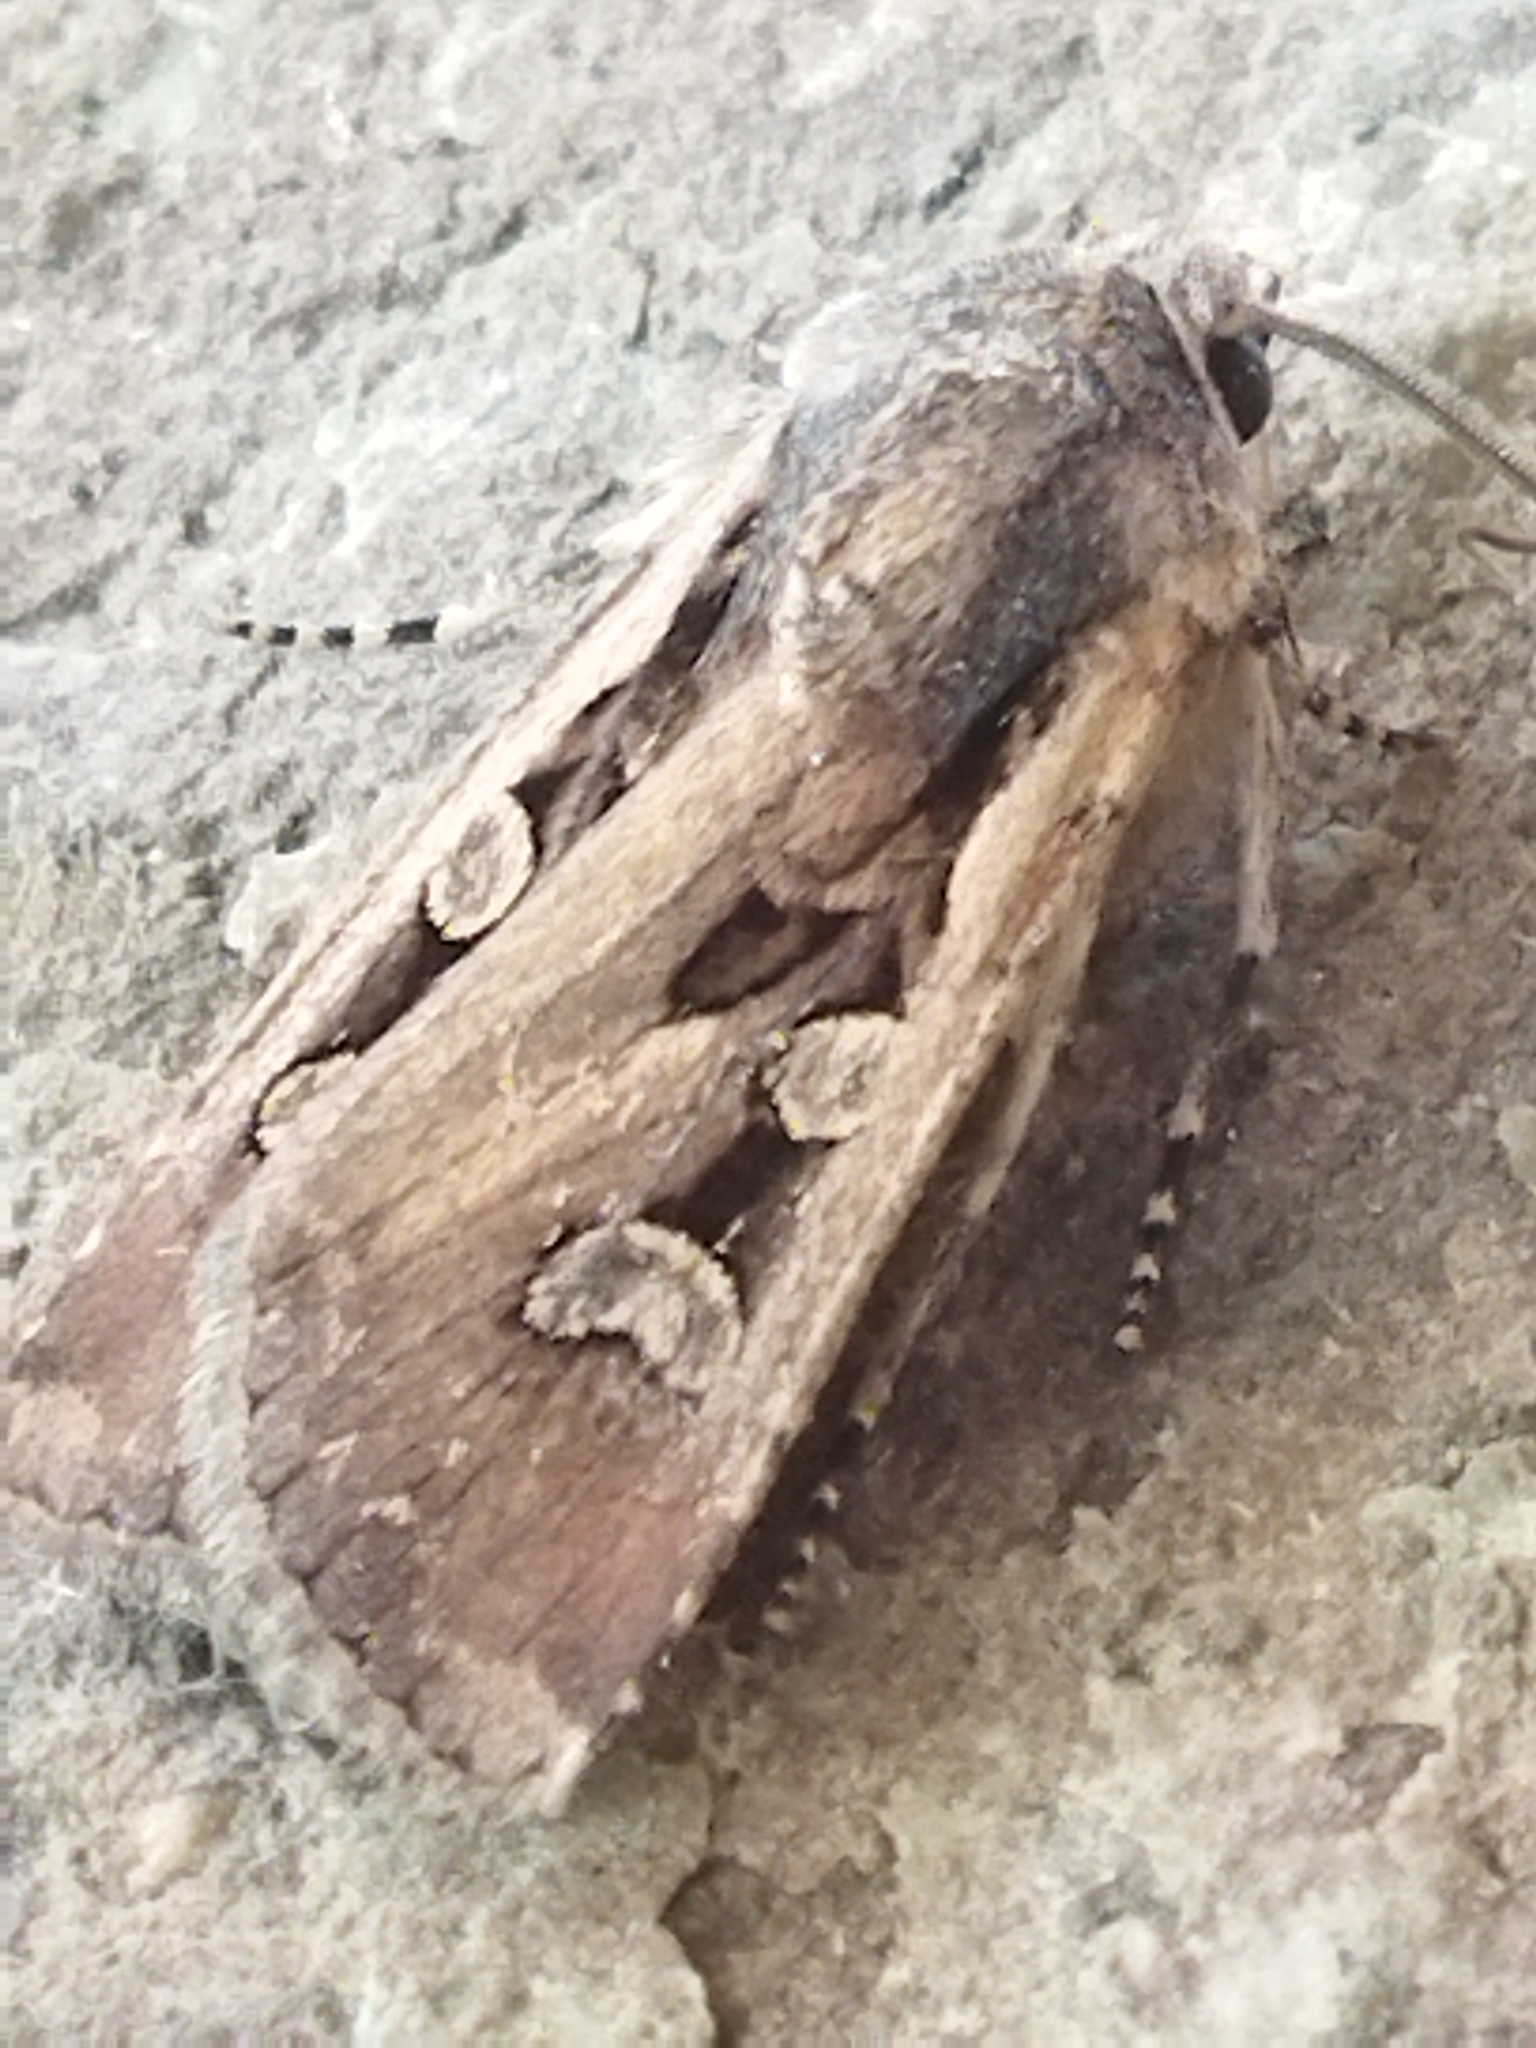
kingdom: Animalia
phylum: Arthropoda
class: Insecta
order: Lepidoptera
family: Noctuidae
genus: Euxoa
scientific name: Euxoa temera
